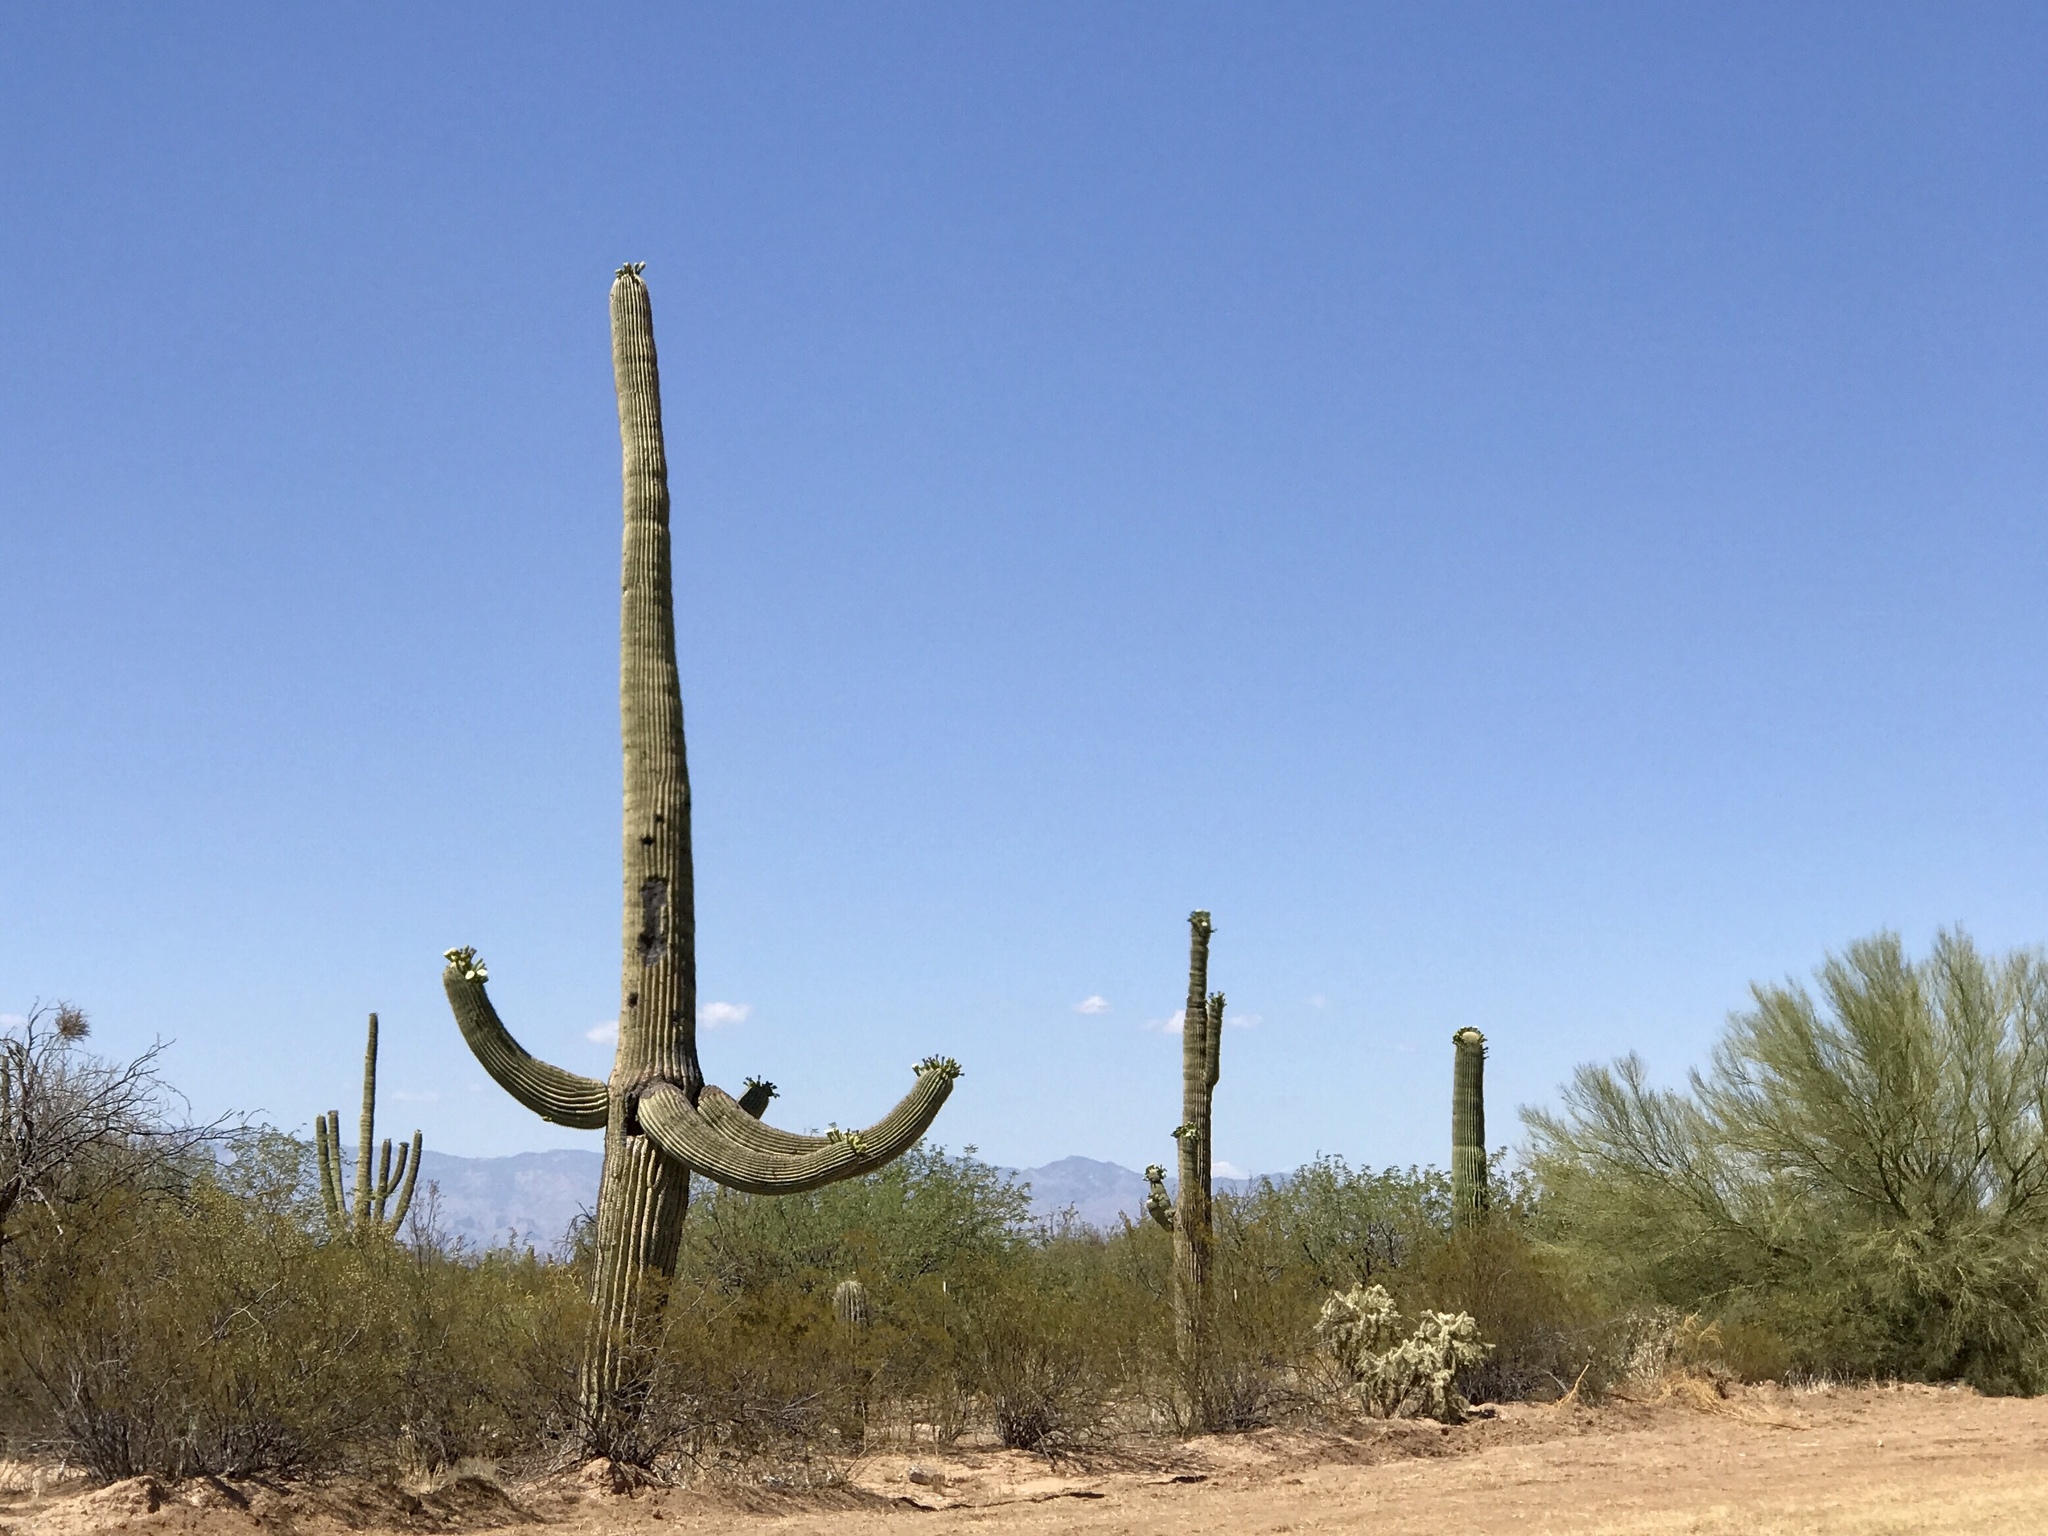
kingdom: Plantae
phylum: Tracheophyta
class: Magnoliopsida
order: Caryophyllales
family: Cactaceae
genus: Carnegiea
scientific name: Carnegiea gigantea
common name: Saguaro
